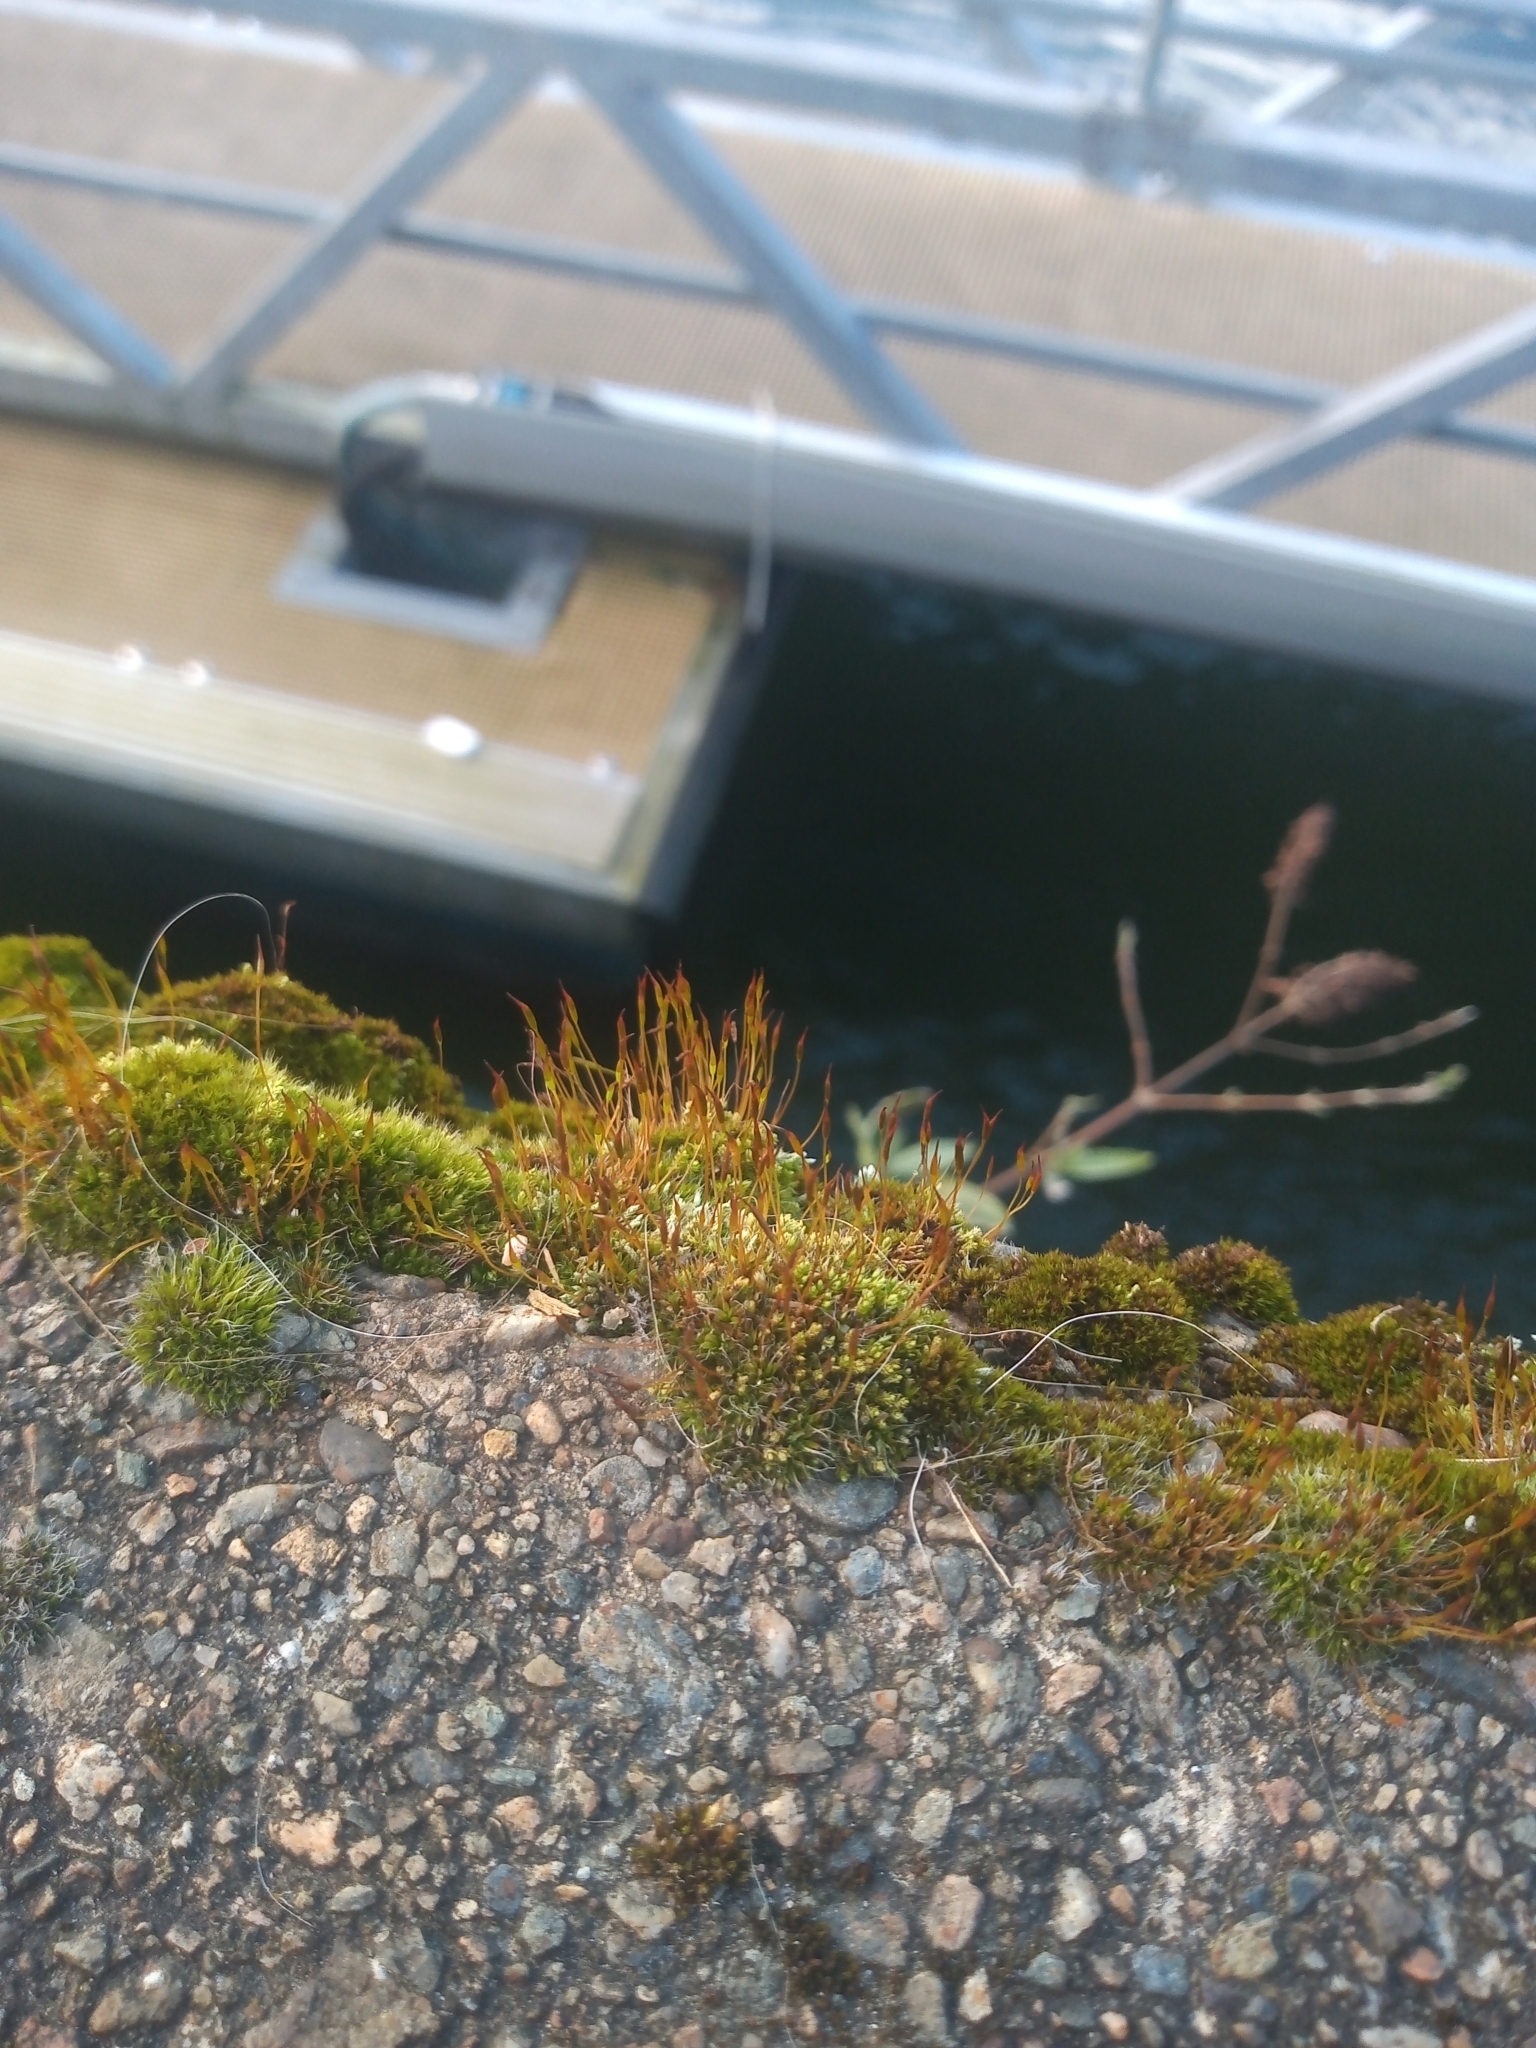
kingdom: Plantae
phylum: Bryophyta
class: Bryopsida
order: Pottiales
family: Pottiaceae
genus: Tortula
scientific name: Tortula muralis
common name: Wall screw-moss
